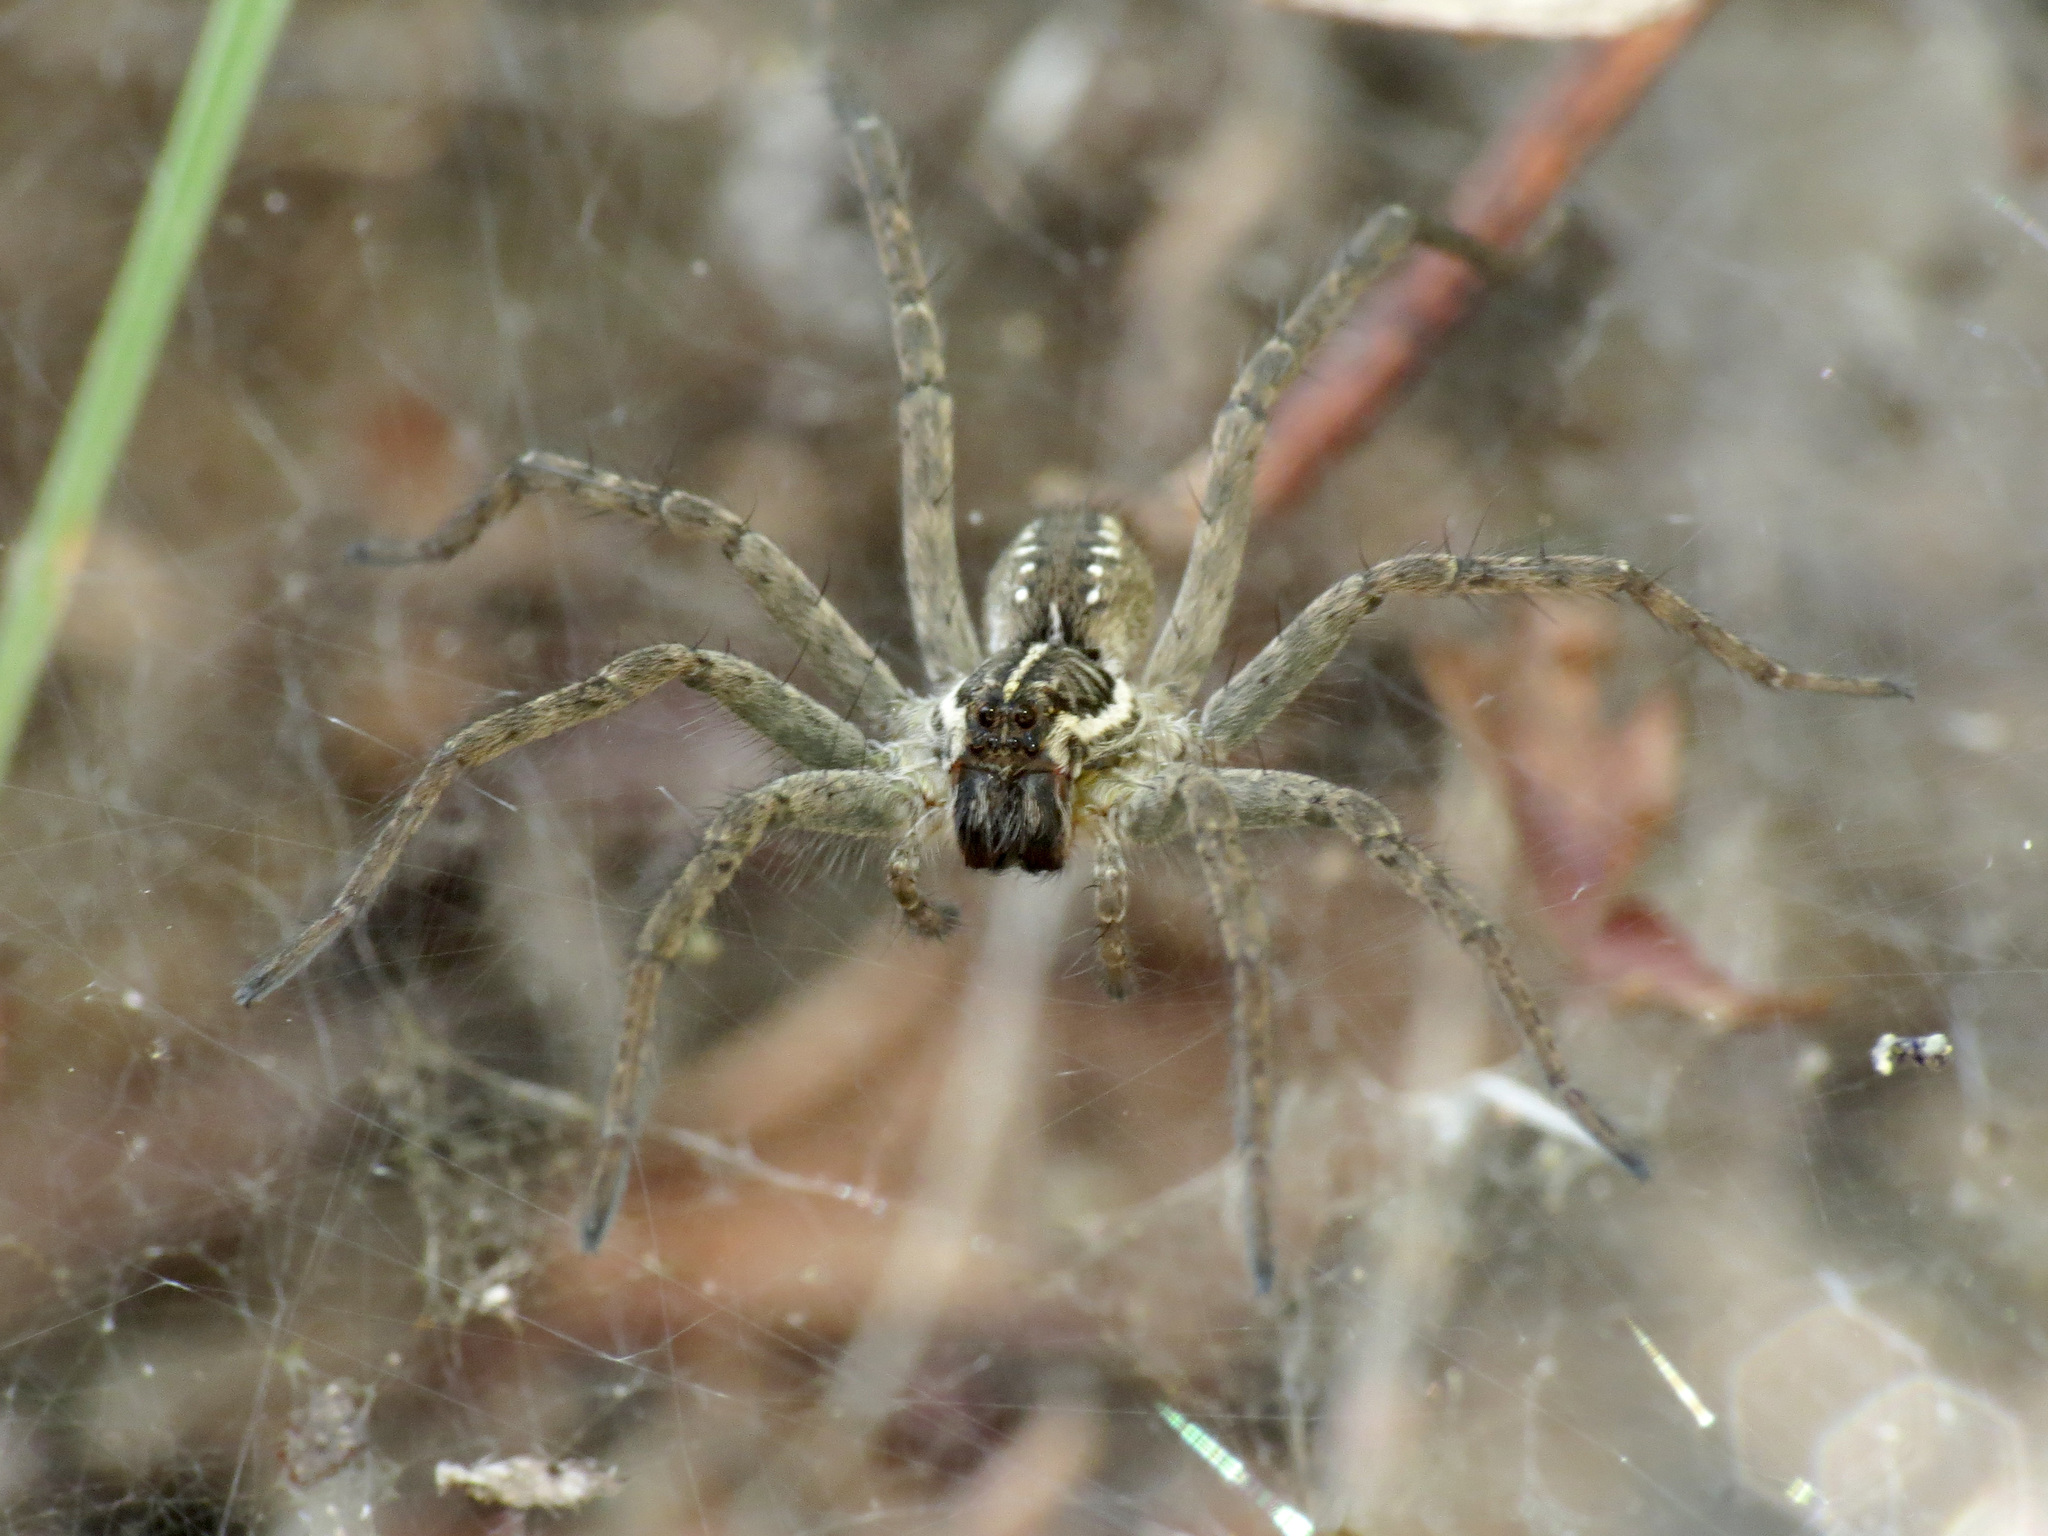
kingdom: Animalia
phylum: Arthropoda
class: Arachnida
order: Araneae
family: Lycosidae
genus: Sosippus
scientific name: Sosippus californicus
